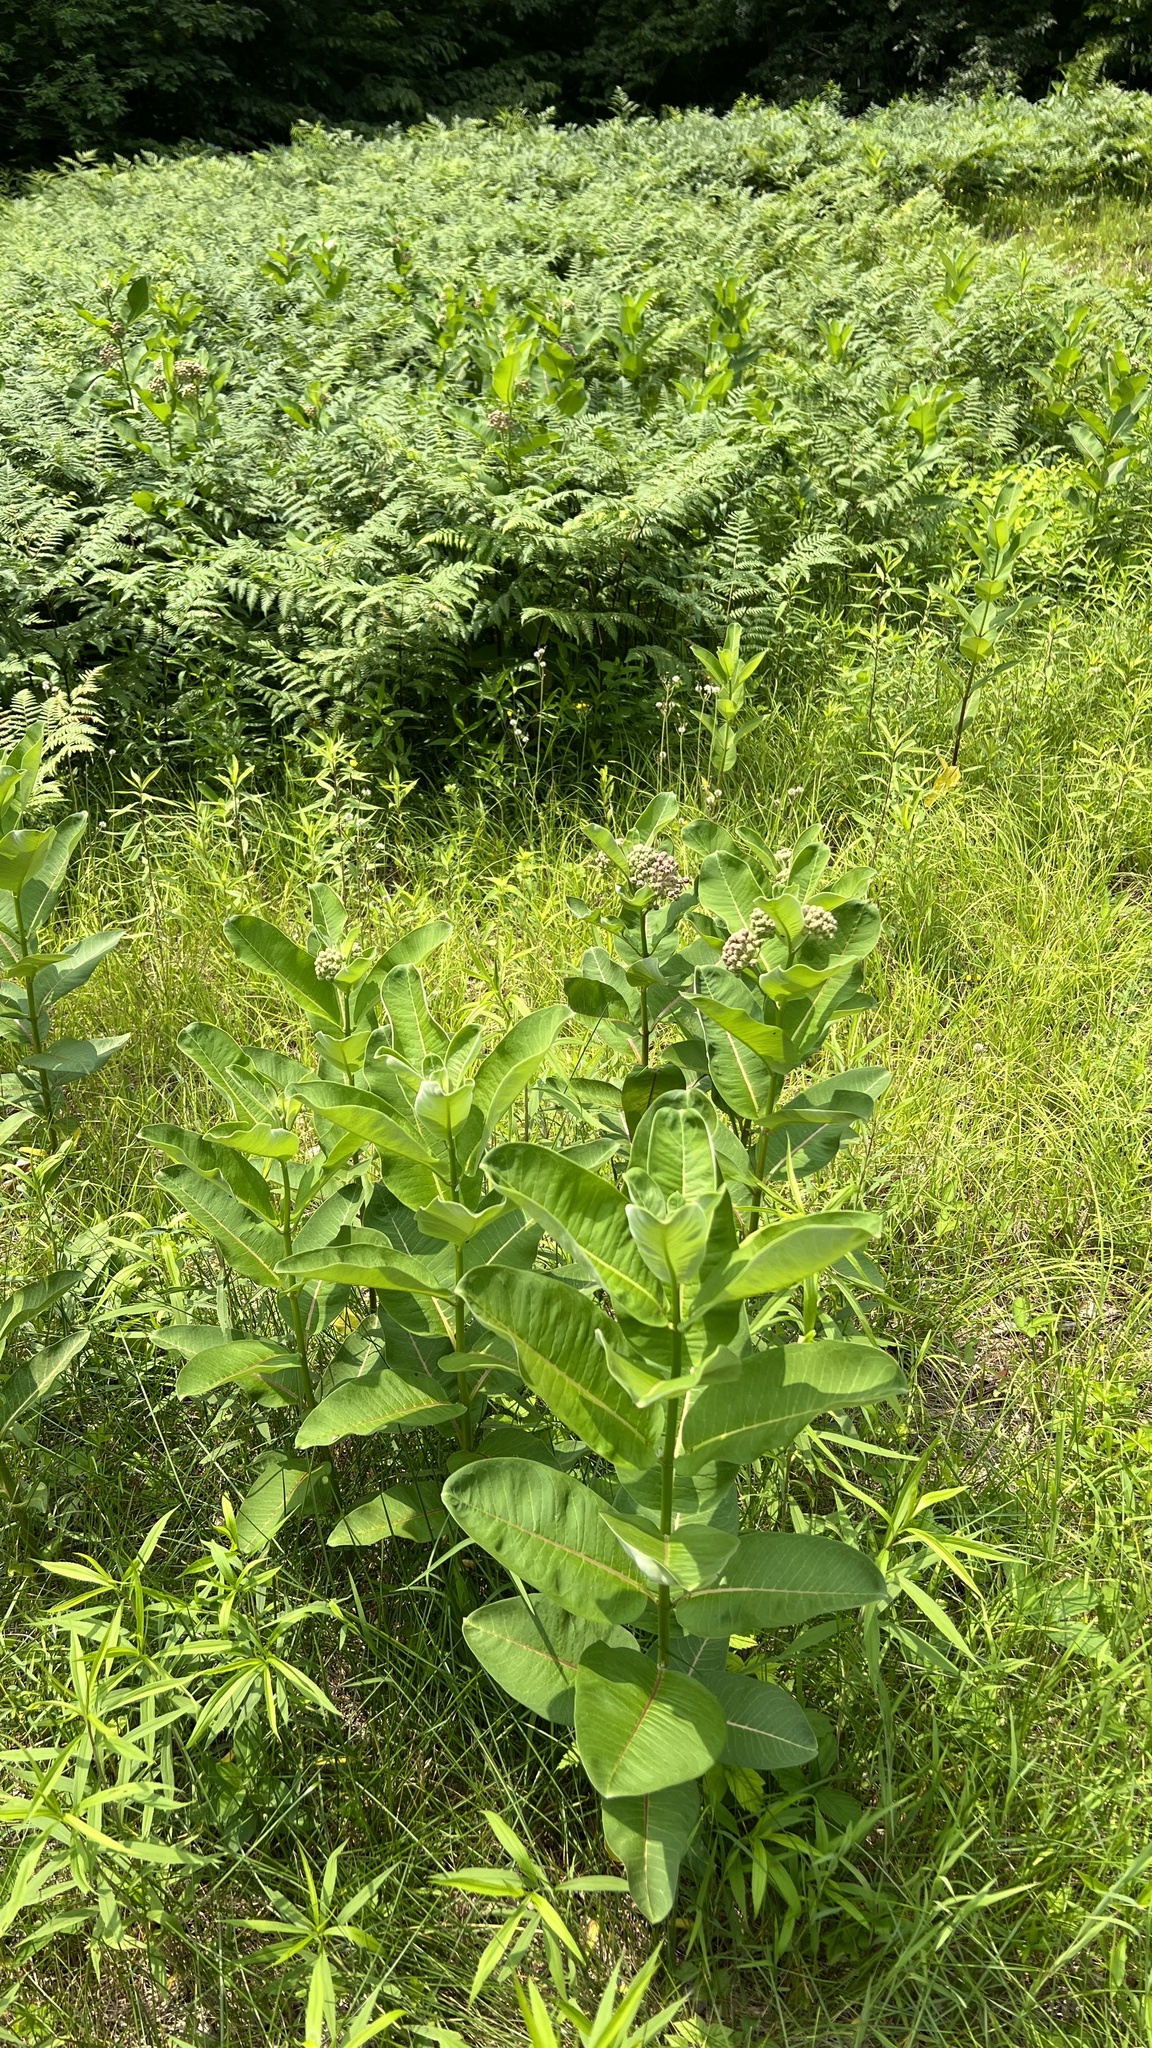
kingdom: Plantae
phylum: Tracheophyta
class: Magnoliopsida
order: Gentianales
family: Apocynaceae
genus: Asclepias
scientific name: Asclepias syriaca
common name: Common milkweed
